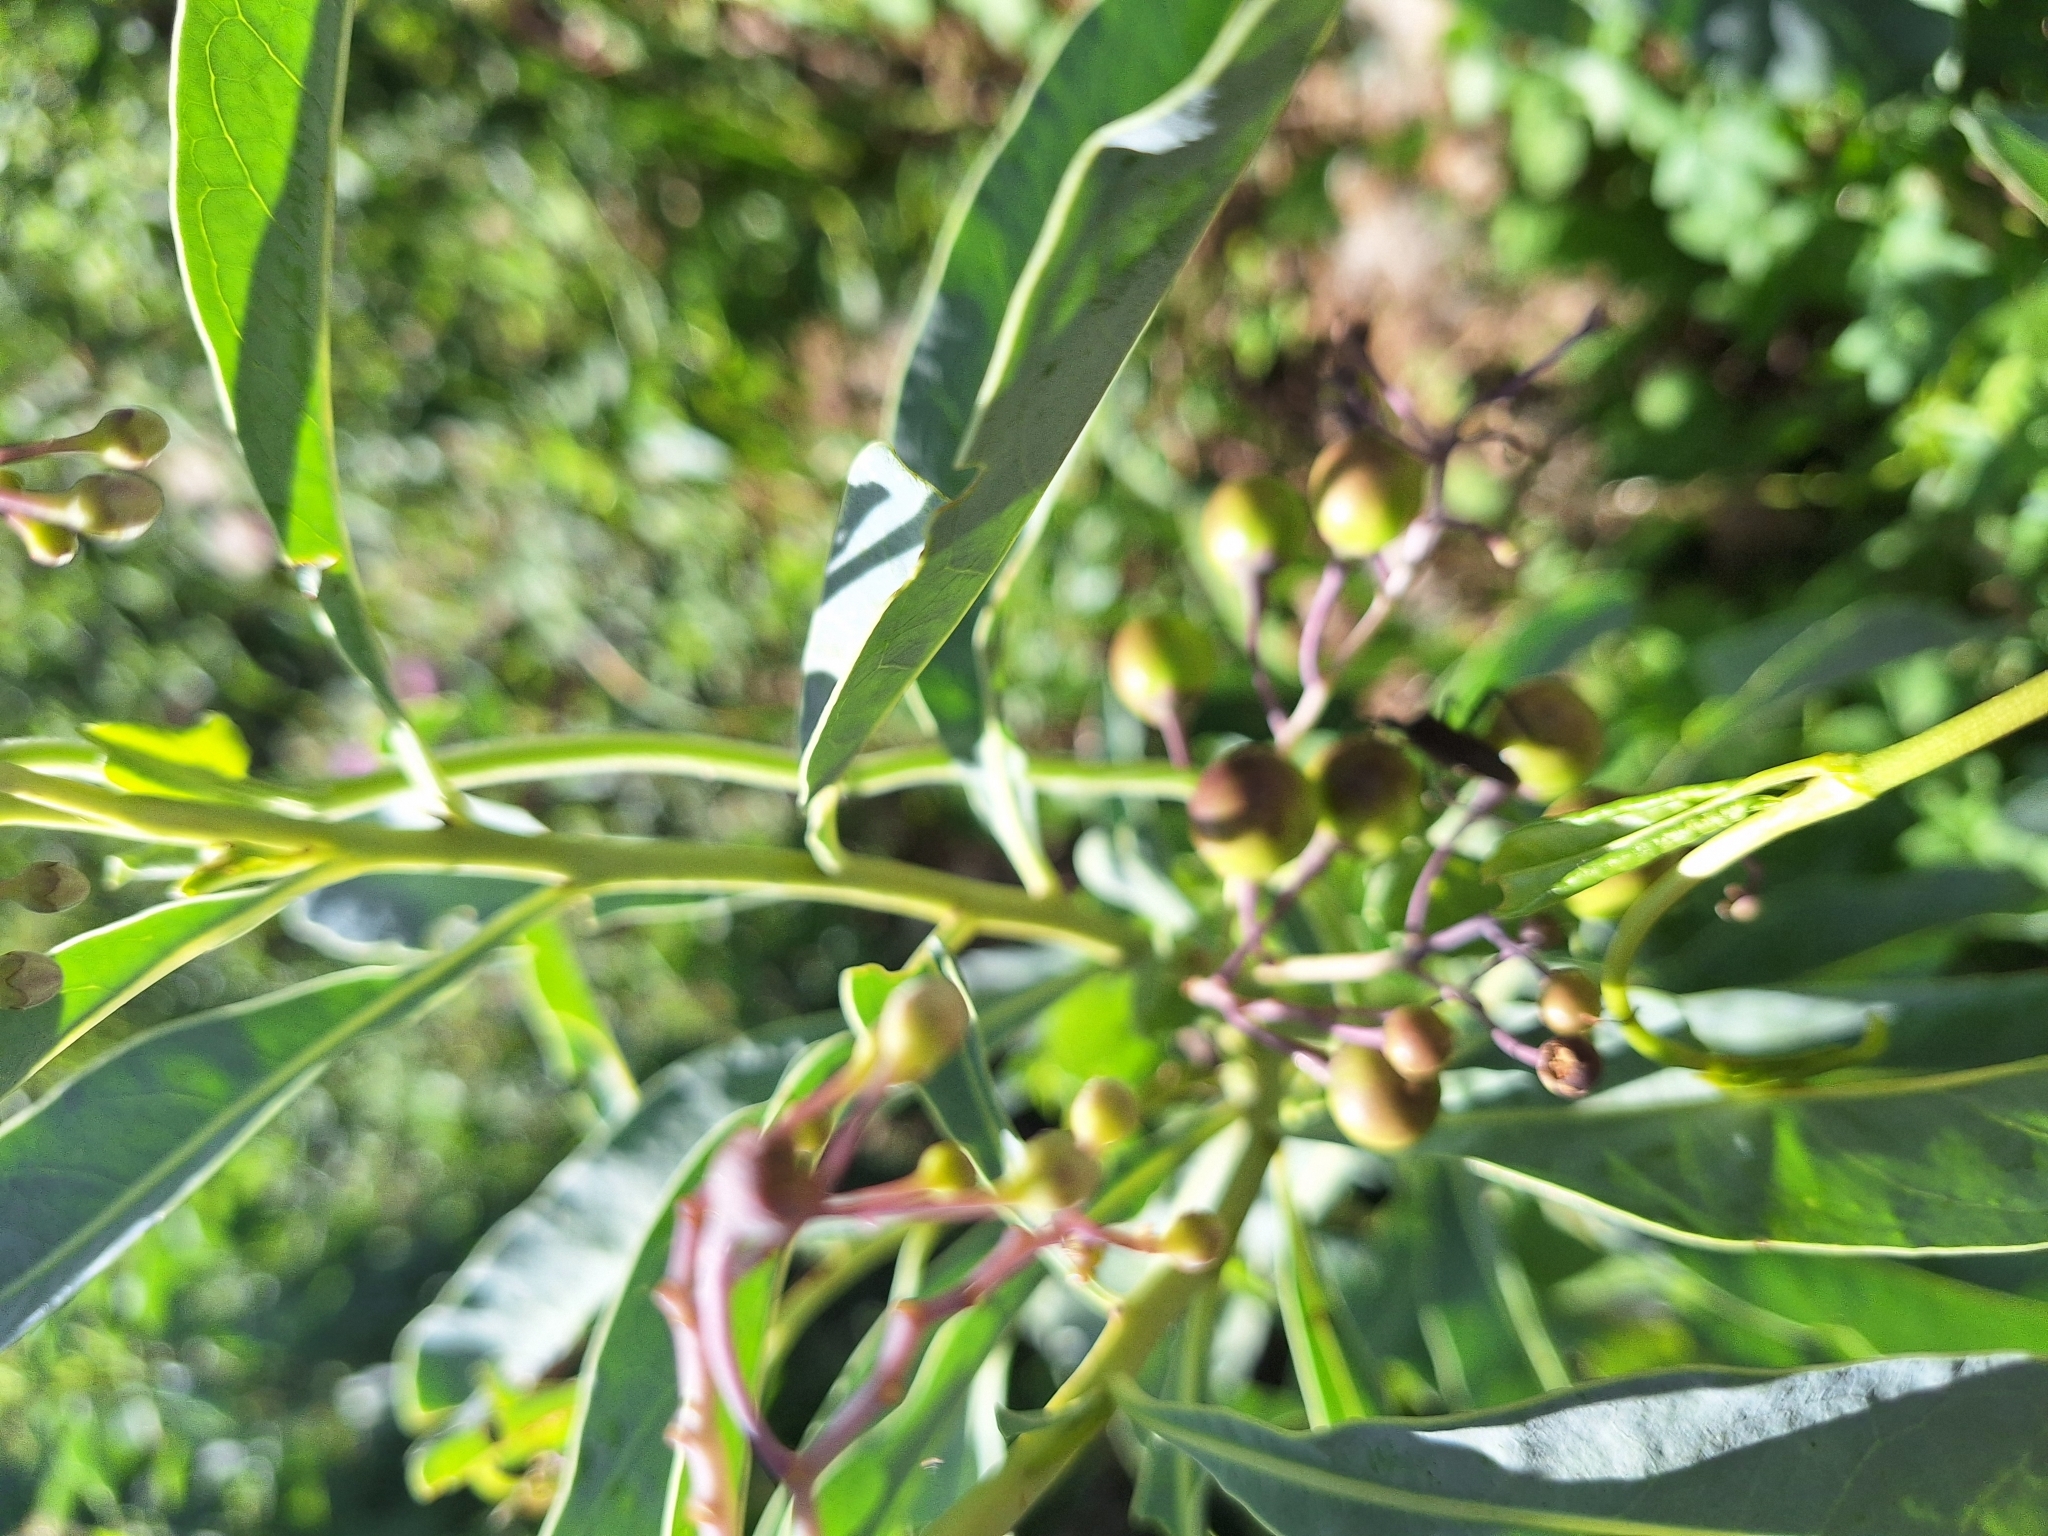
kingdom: Plantae
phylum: Tracheophyta
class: Magnoliopsida
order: Solanales
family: Solanaceae
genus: Solanum
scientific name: Solanum glaucophyllum
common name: Waxyleaf nightshade
